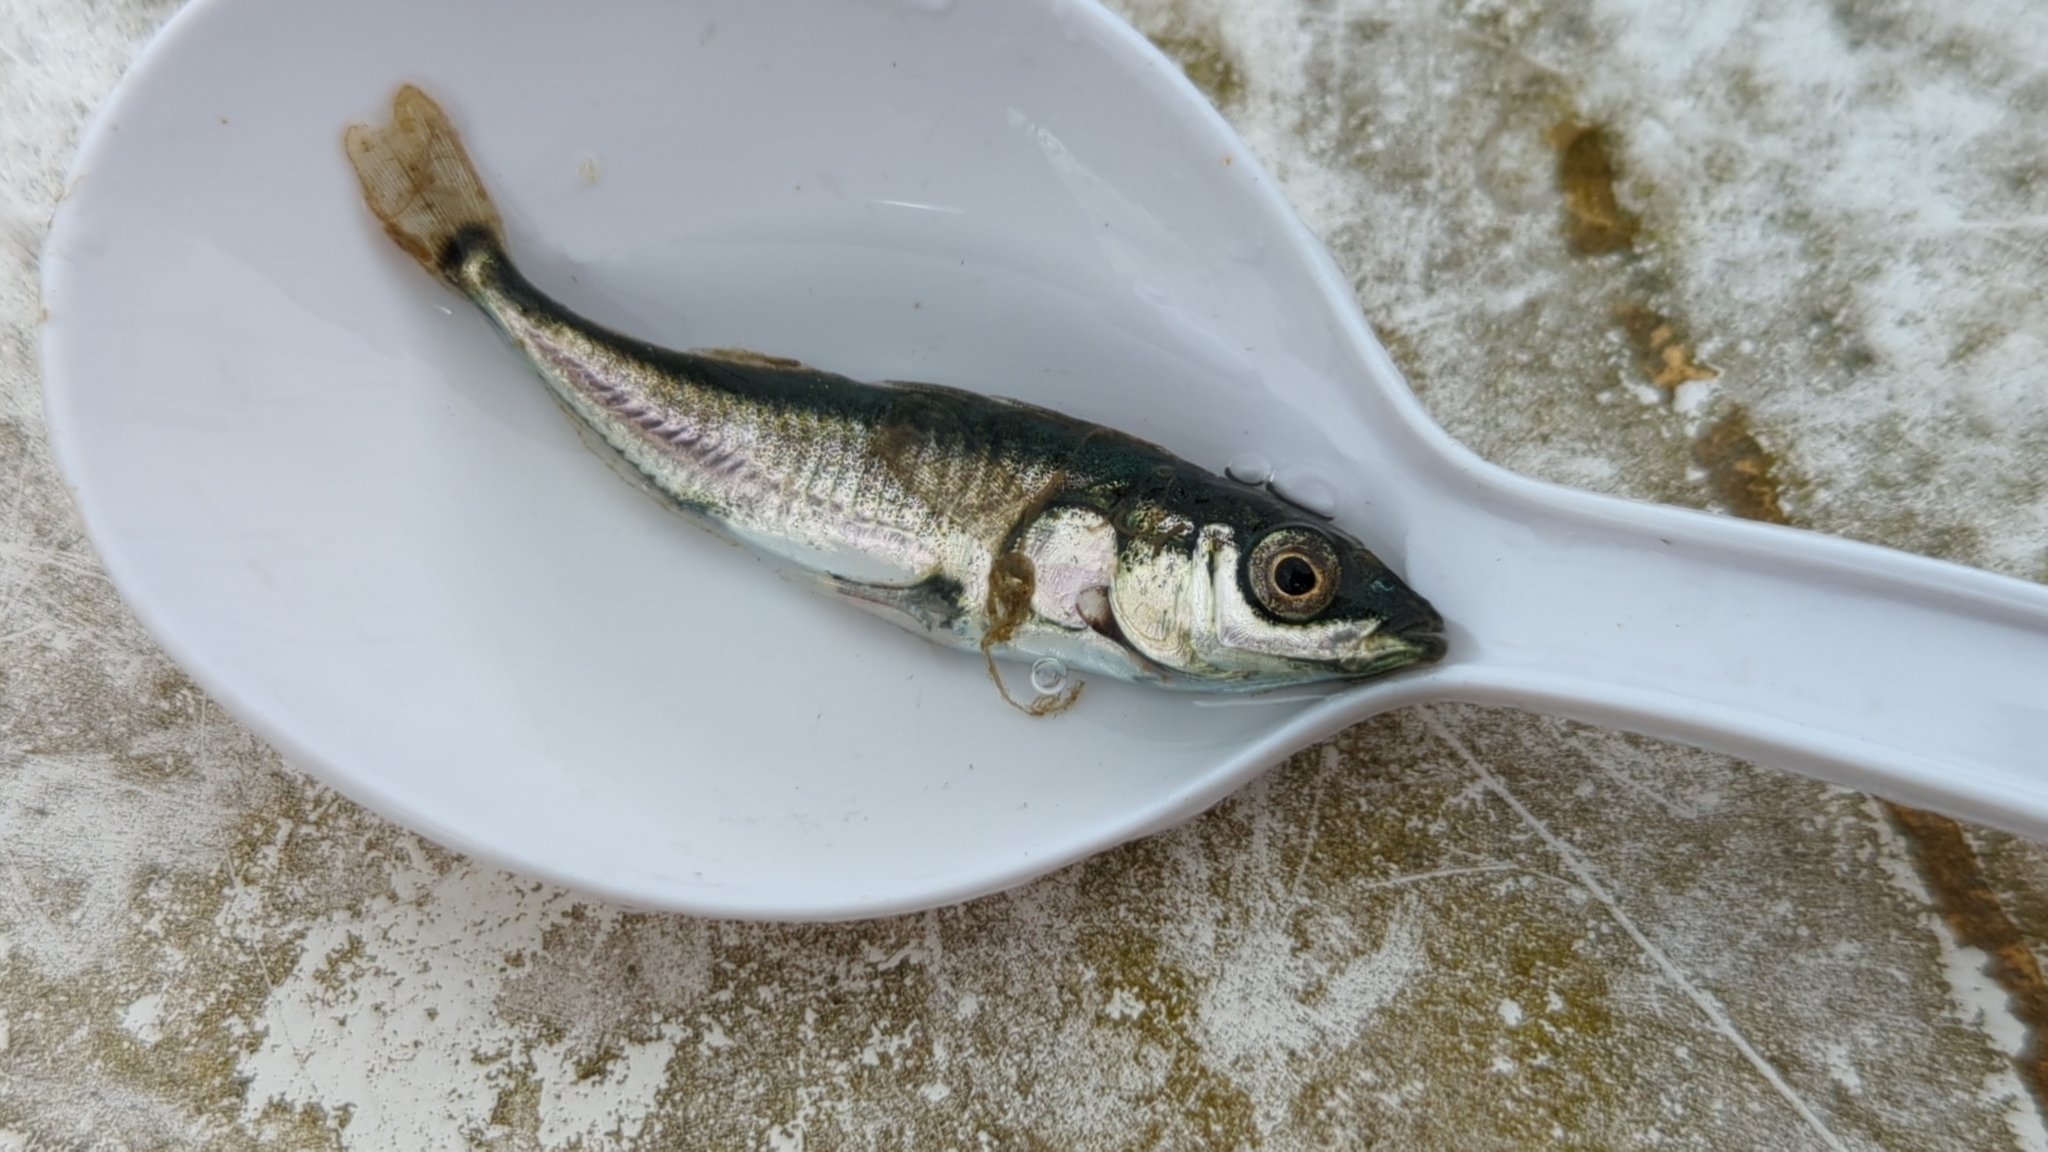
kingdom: Animalia
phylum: Chordata
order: Gasterosteiformes
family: Gasterosteidae
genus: Gasterosteus
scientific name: Gasterosteus aculeatus
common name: Three-spined stickleback
